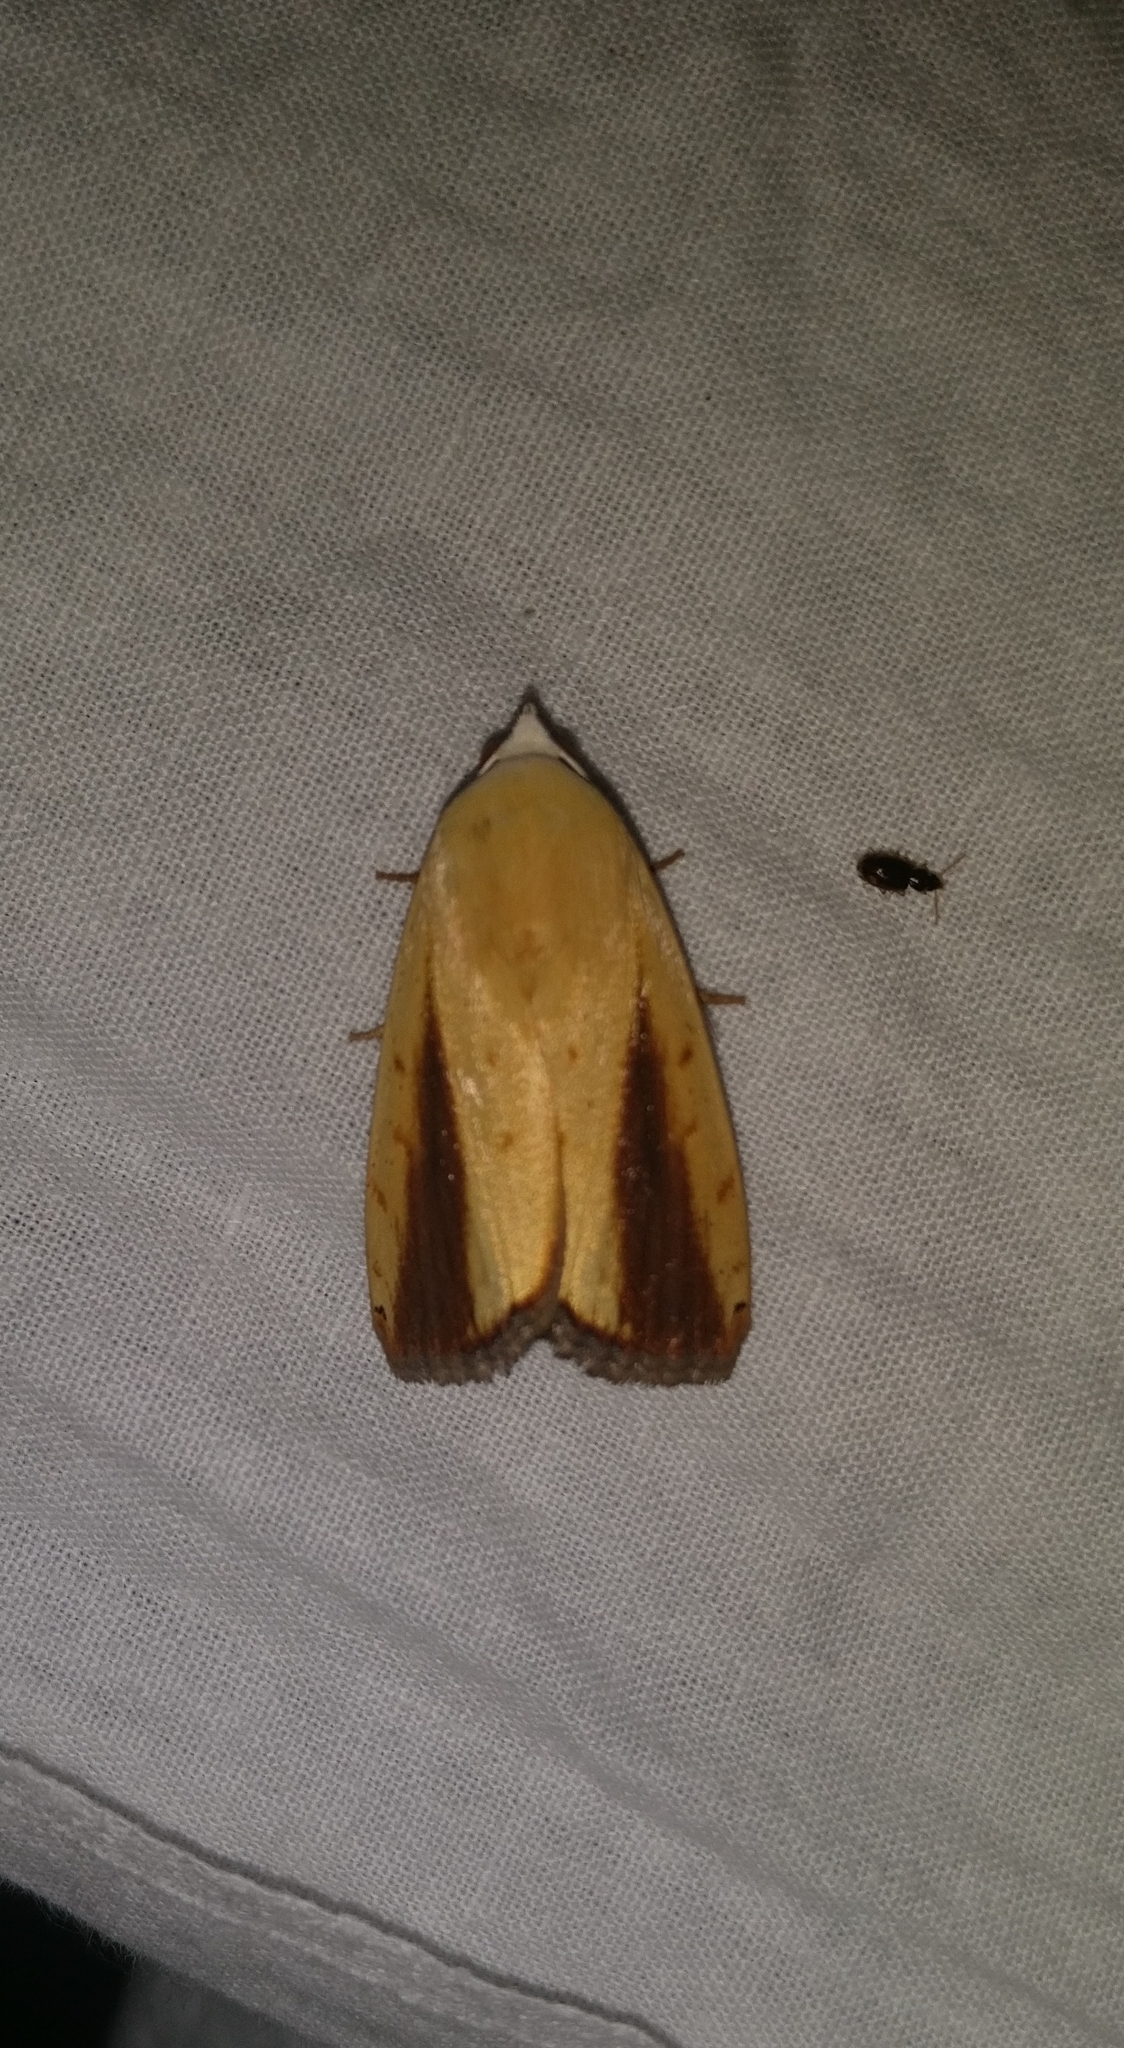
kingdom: Animalia
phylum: Arthropoda
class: Insecta
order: Lepidoptera
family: Nolidae
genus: Xanthodes
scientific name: Xanthodes intersepta
